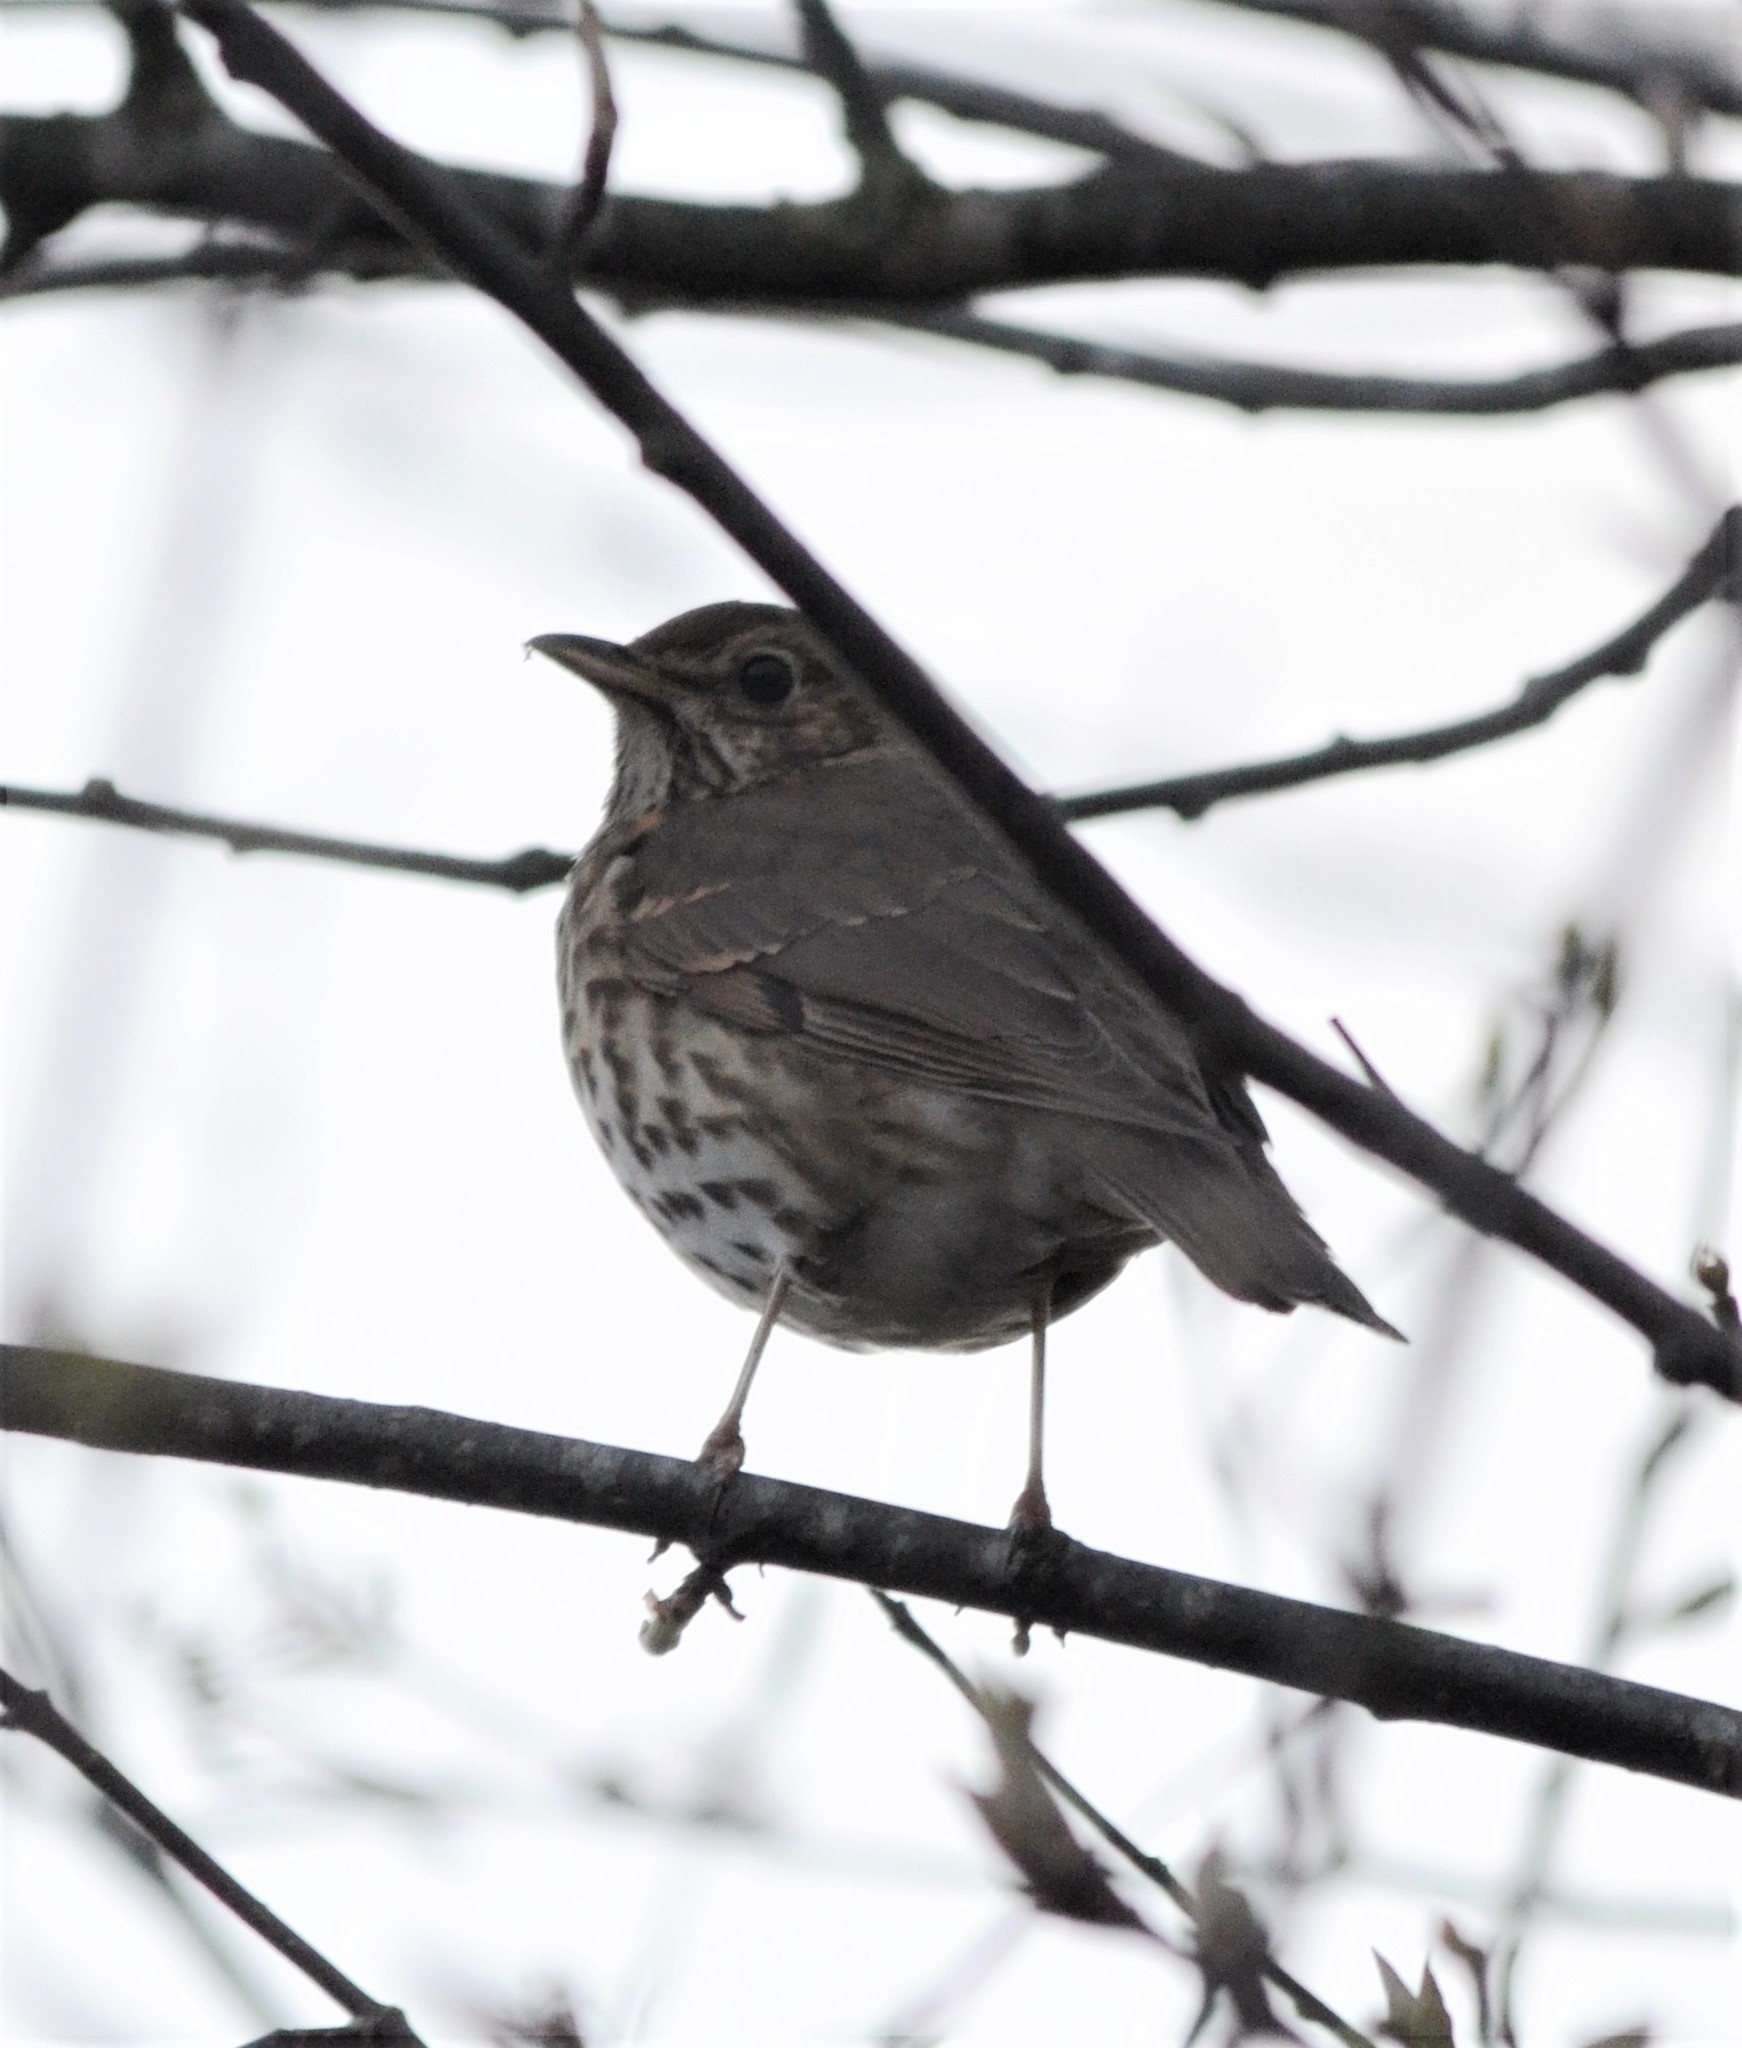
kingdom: Animalia
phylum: Chordata
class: Aves
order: Passeriformes
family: Turdidae
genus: Turdus
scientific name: Turdus philomelos
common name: Song thrush
